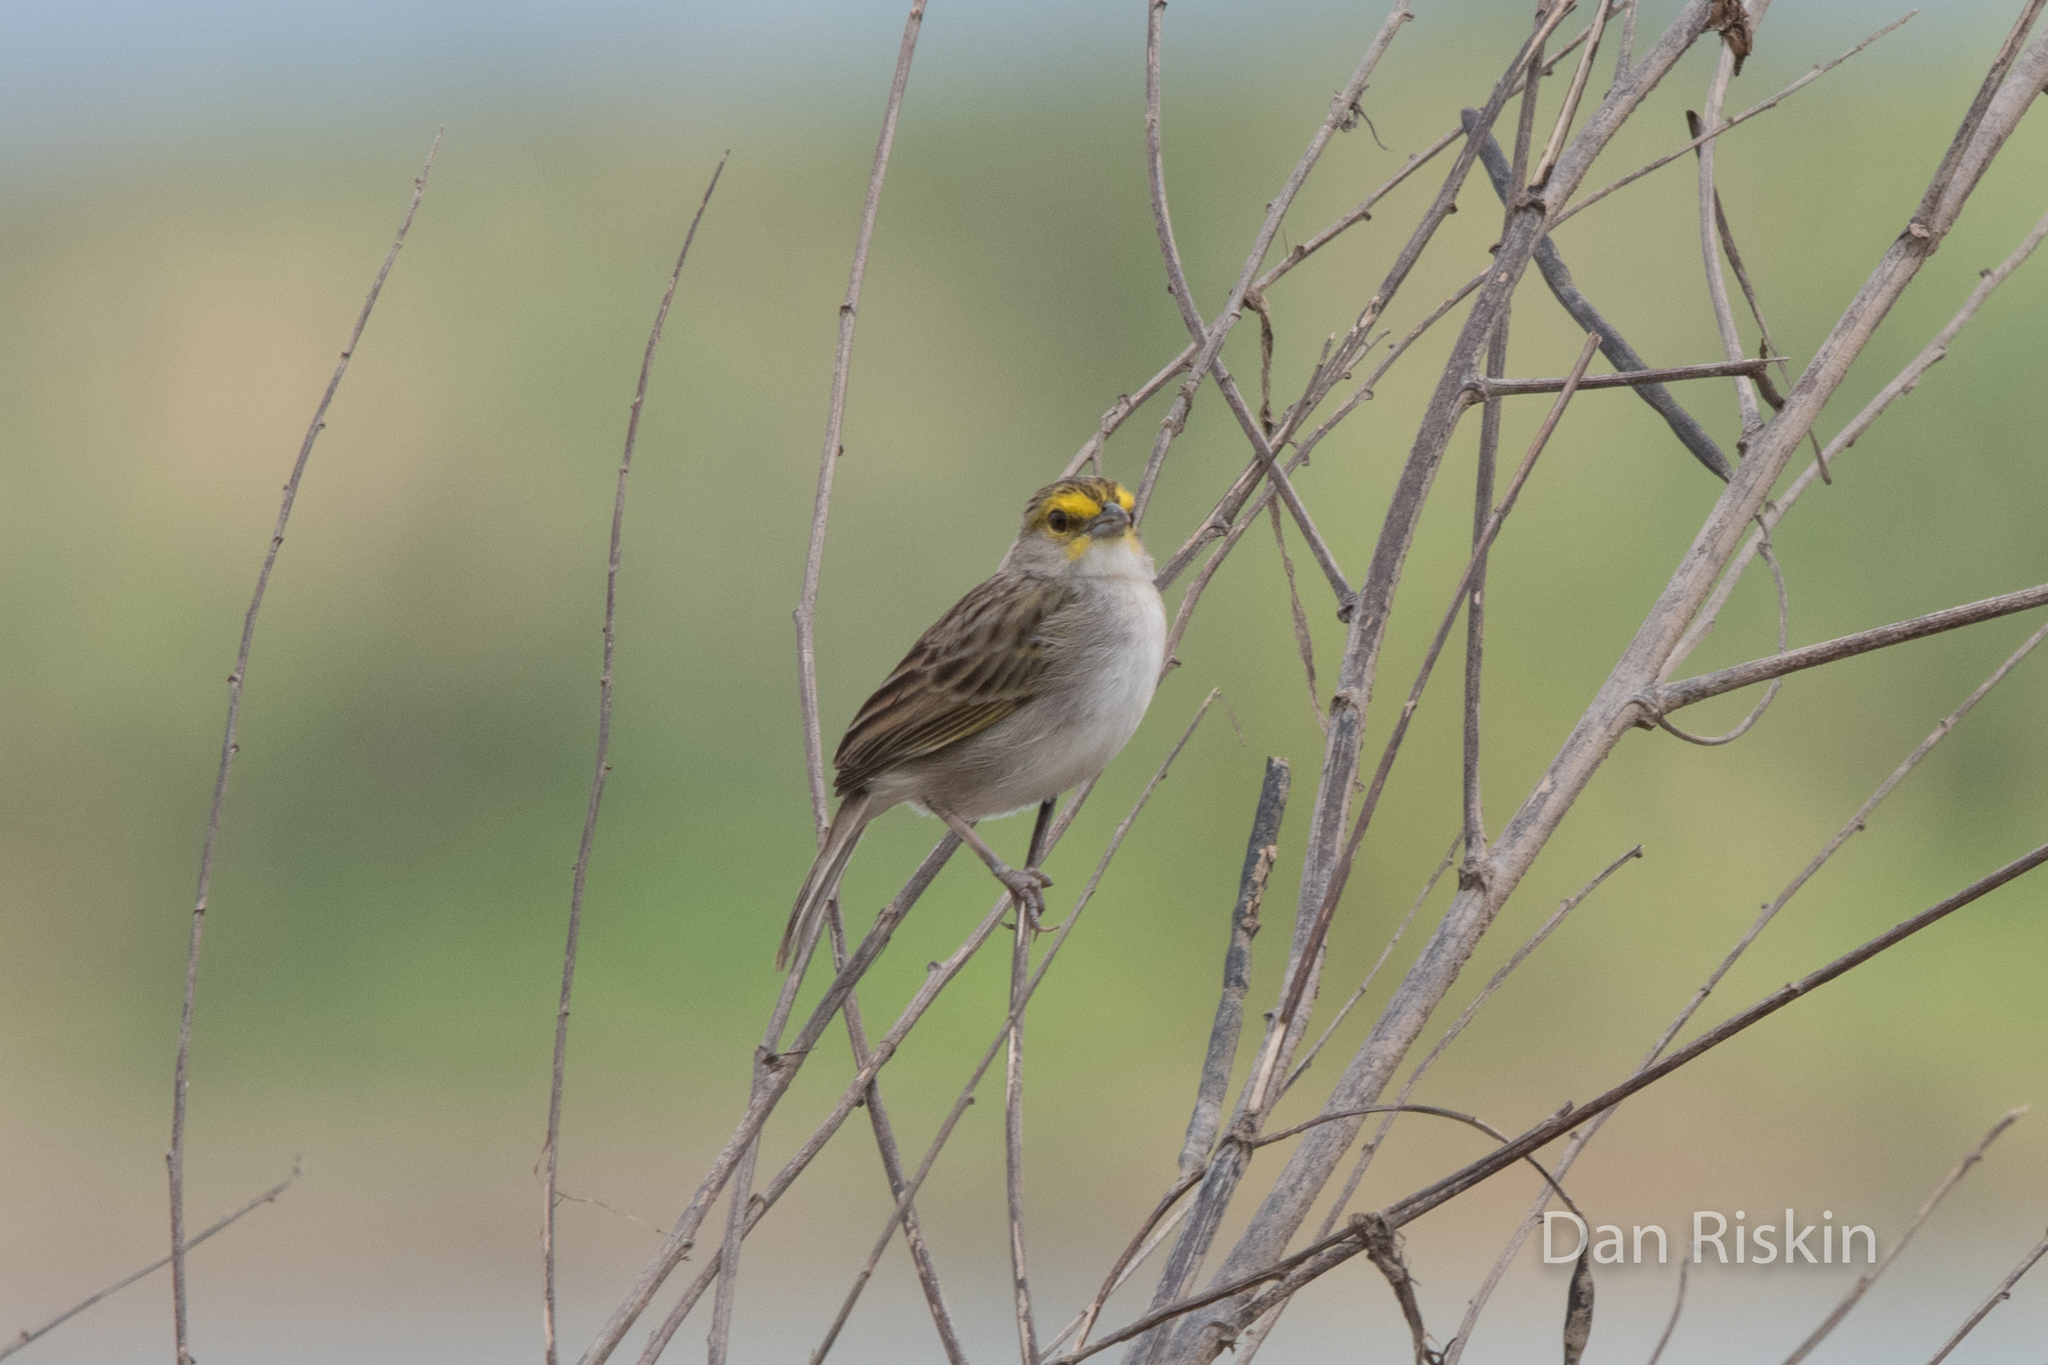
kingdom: Animalia
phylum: Chordata
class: Aves
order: Passeriformes
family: Passerellidae
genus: Ammodramus
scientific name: Ammodramus aurifrons
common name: Yellow-browed sparrow
